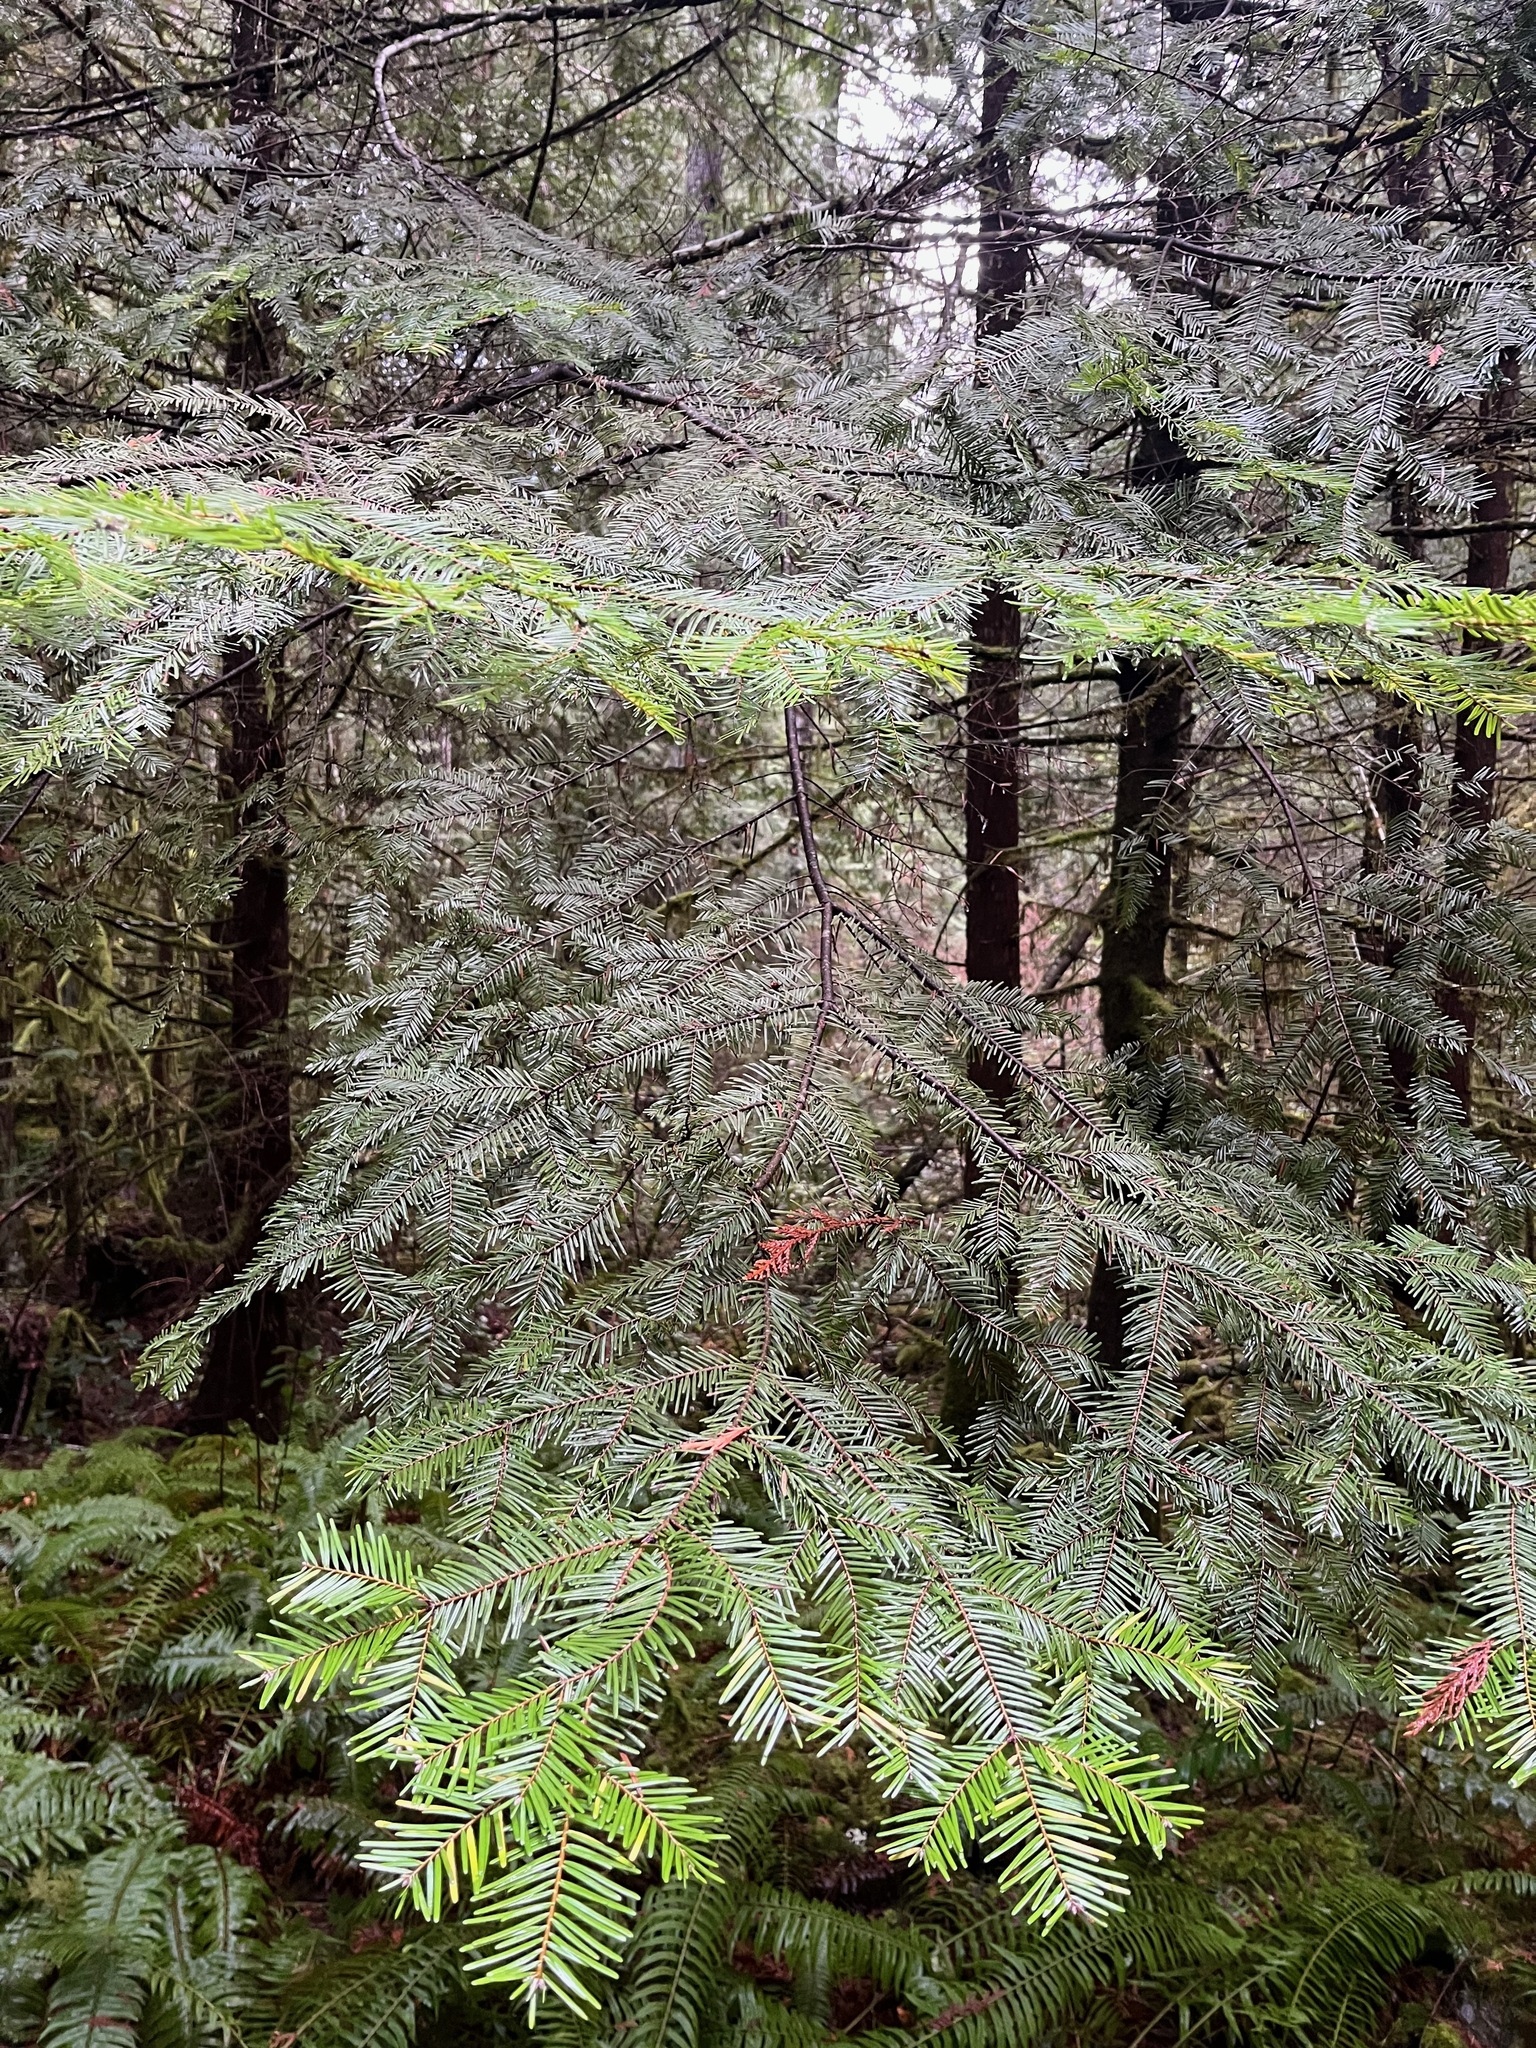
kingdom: Plantae
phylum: Tracheophyta
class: Pinopsida
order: Pinales
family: Pinaceae
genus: Abies
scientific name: Abies grandis
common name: Giant fir
